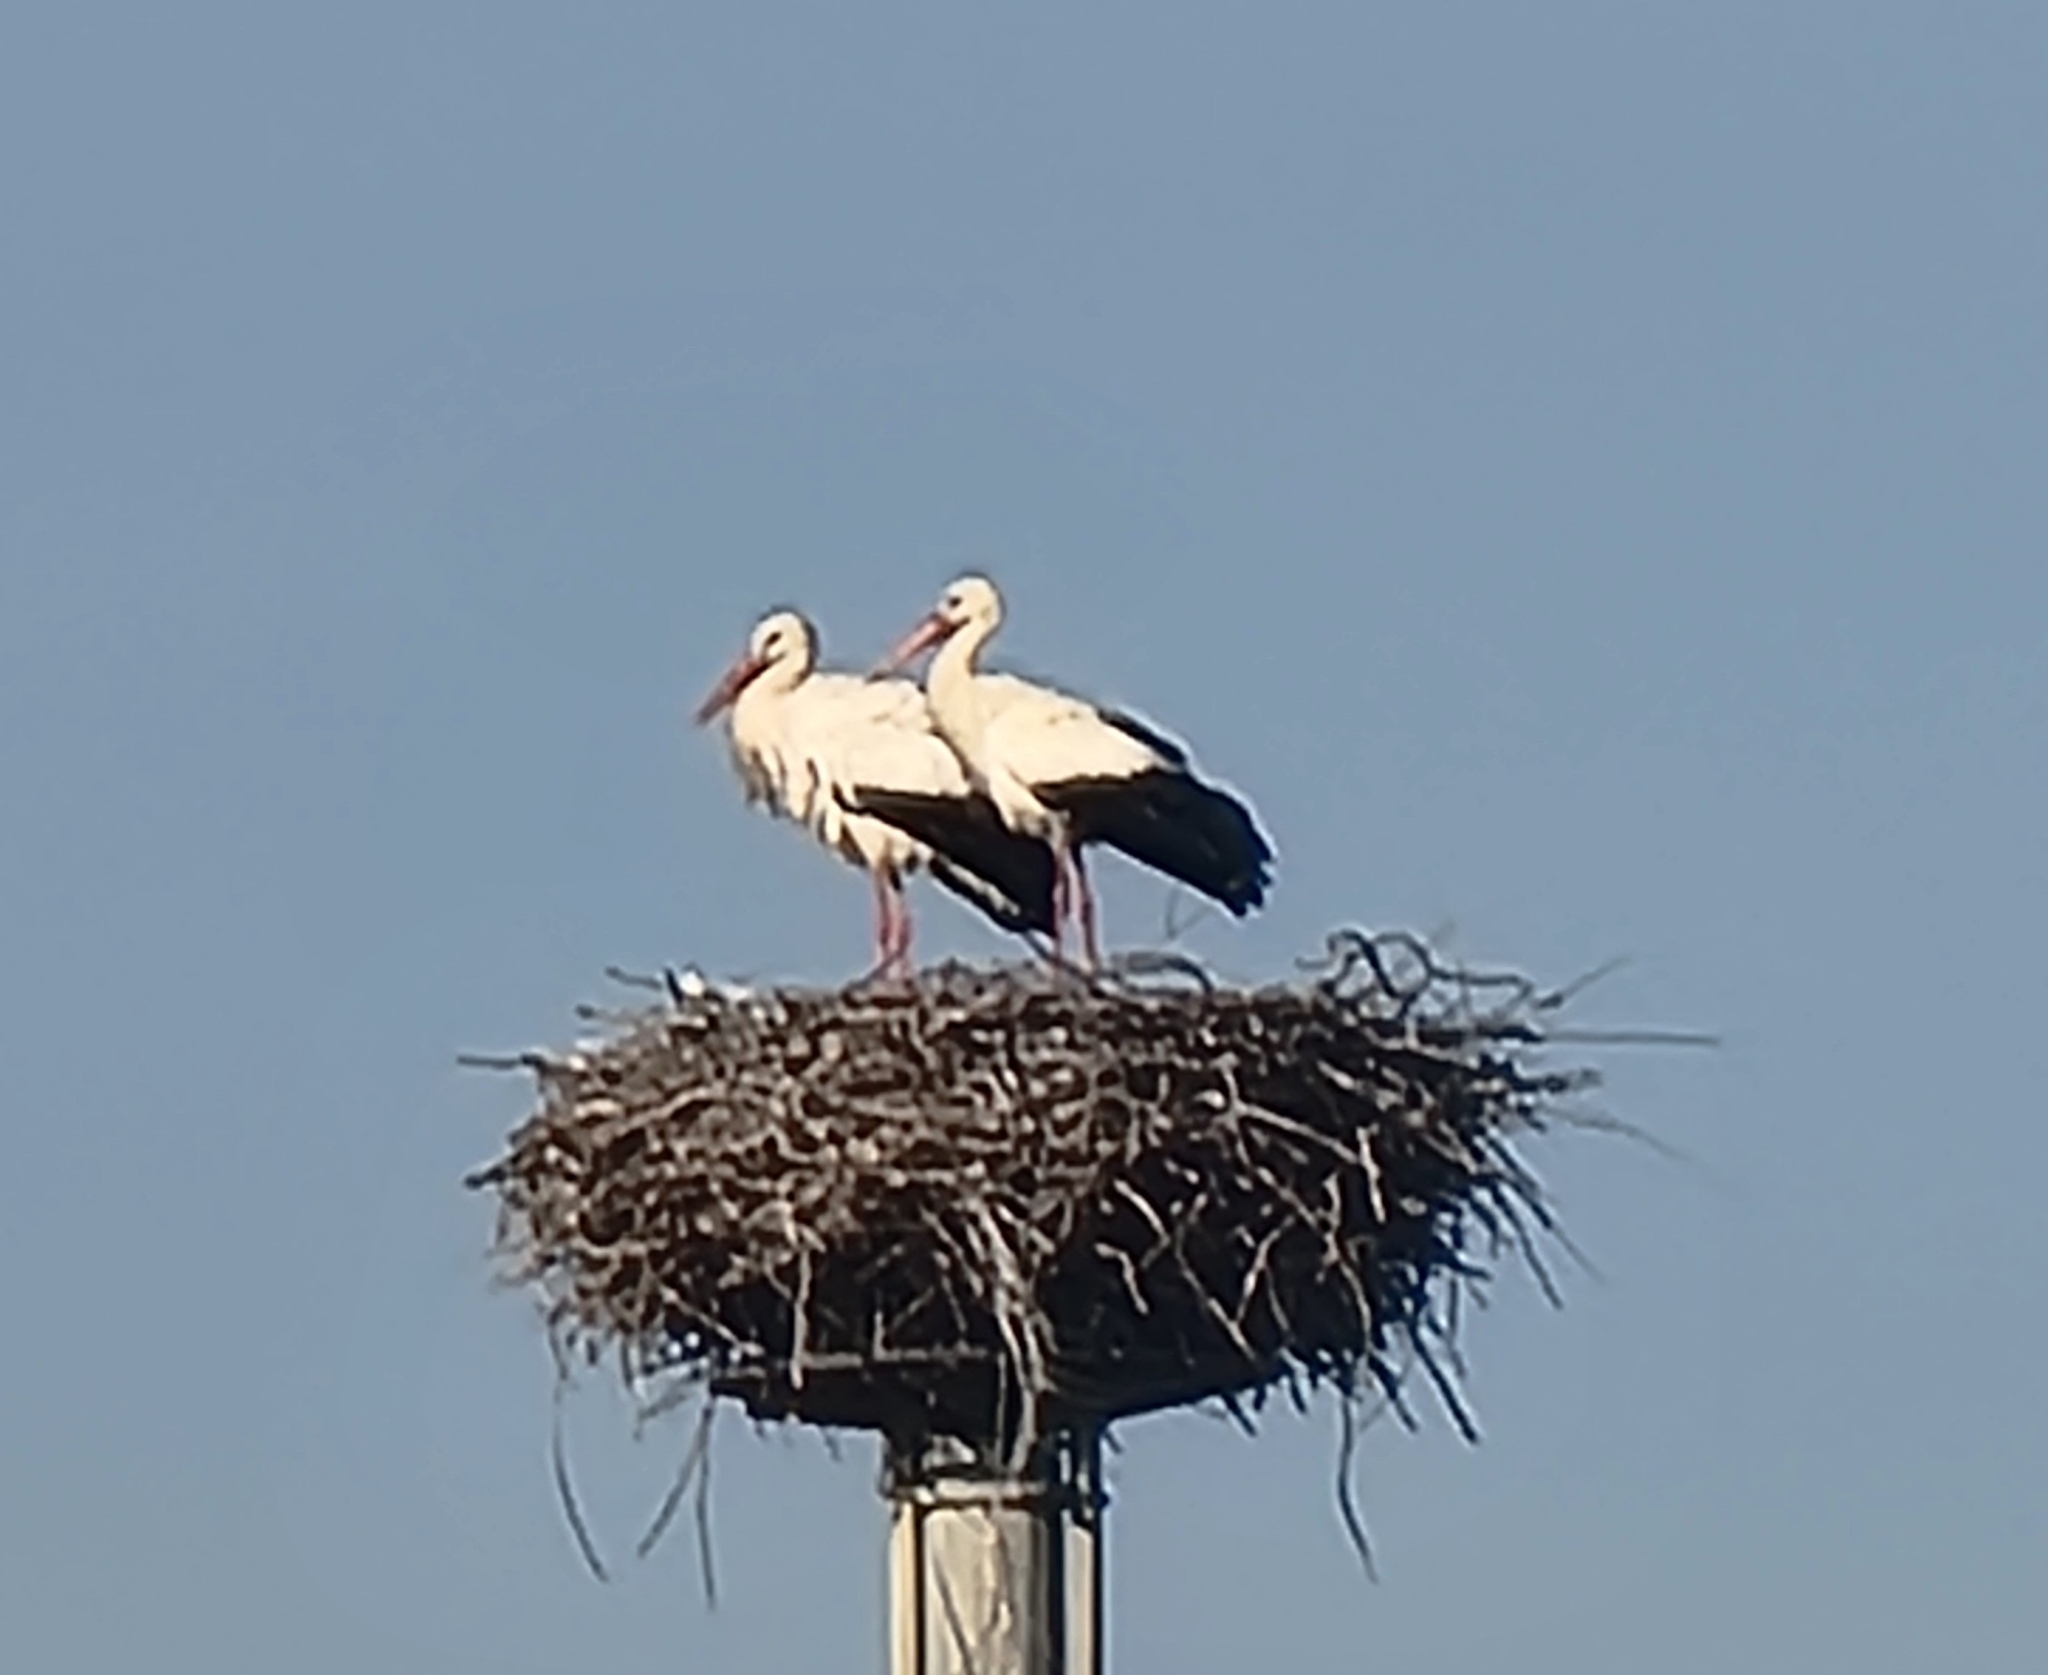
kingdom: Animalia
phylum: Chordata
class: Aves
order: Ciconiiformes
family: Ciconiidae
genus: Ciconia
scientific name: Ciconia ciconia
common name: White stork
